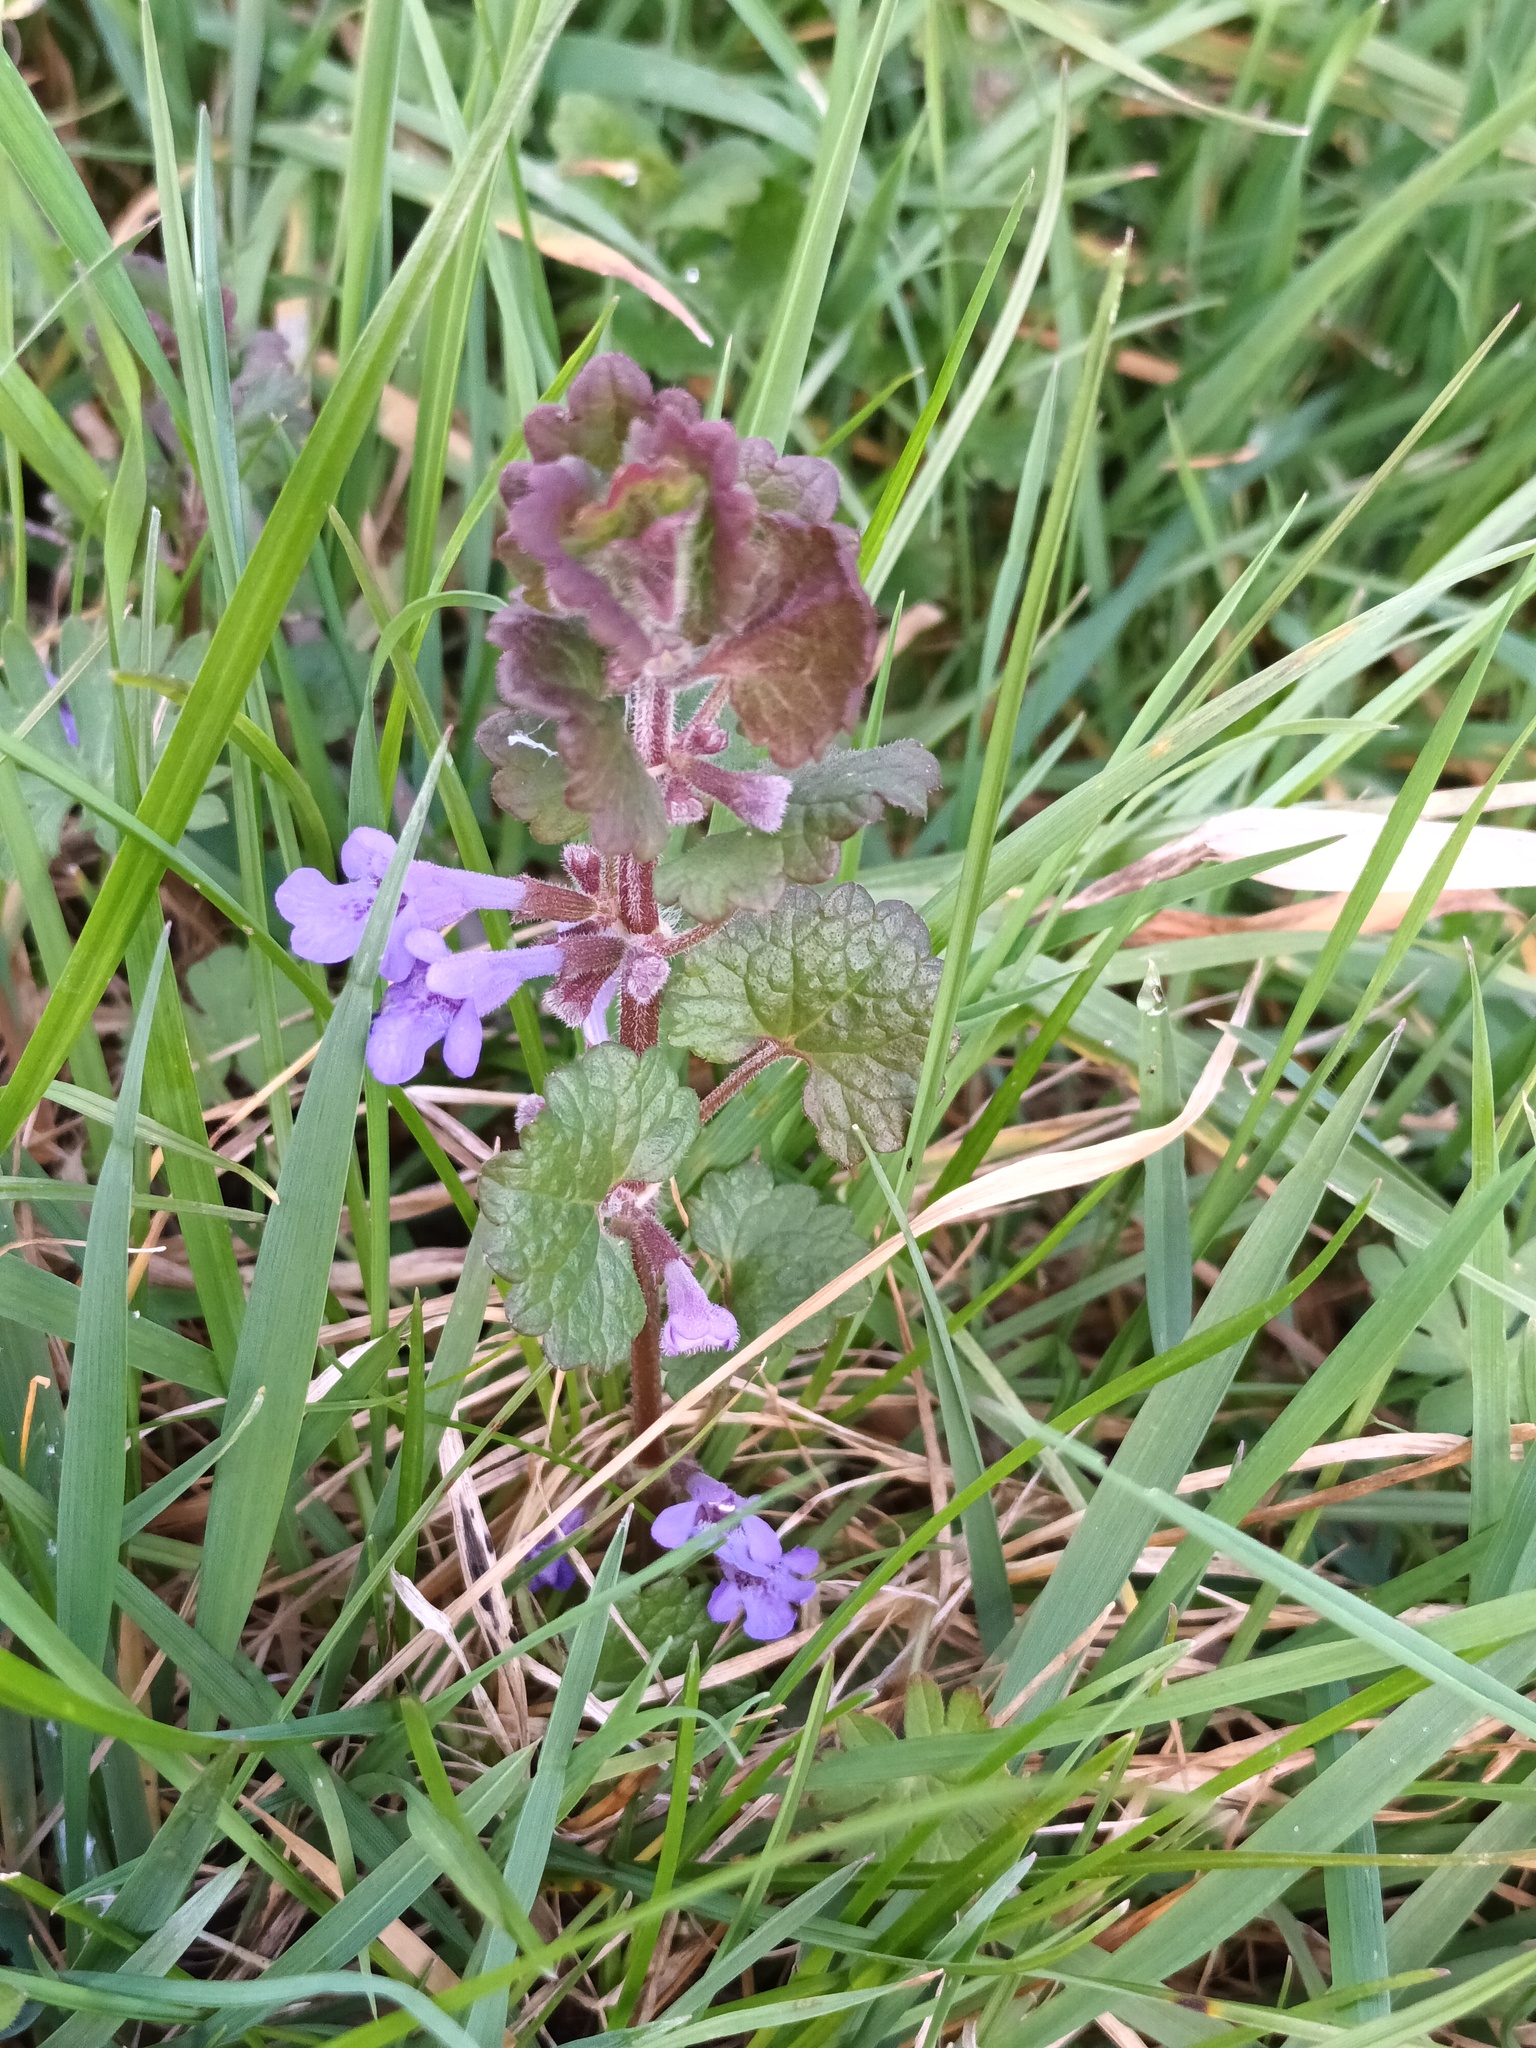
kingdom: Plantae
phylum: Tracheophyta
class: Magnoliopsida
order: Lamiales
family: Lamiaceae
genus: Glechoma
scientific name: Glechoma hederacea
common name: Ground ivy
